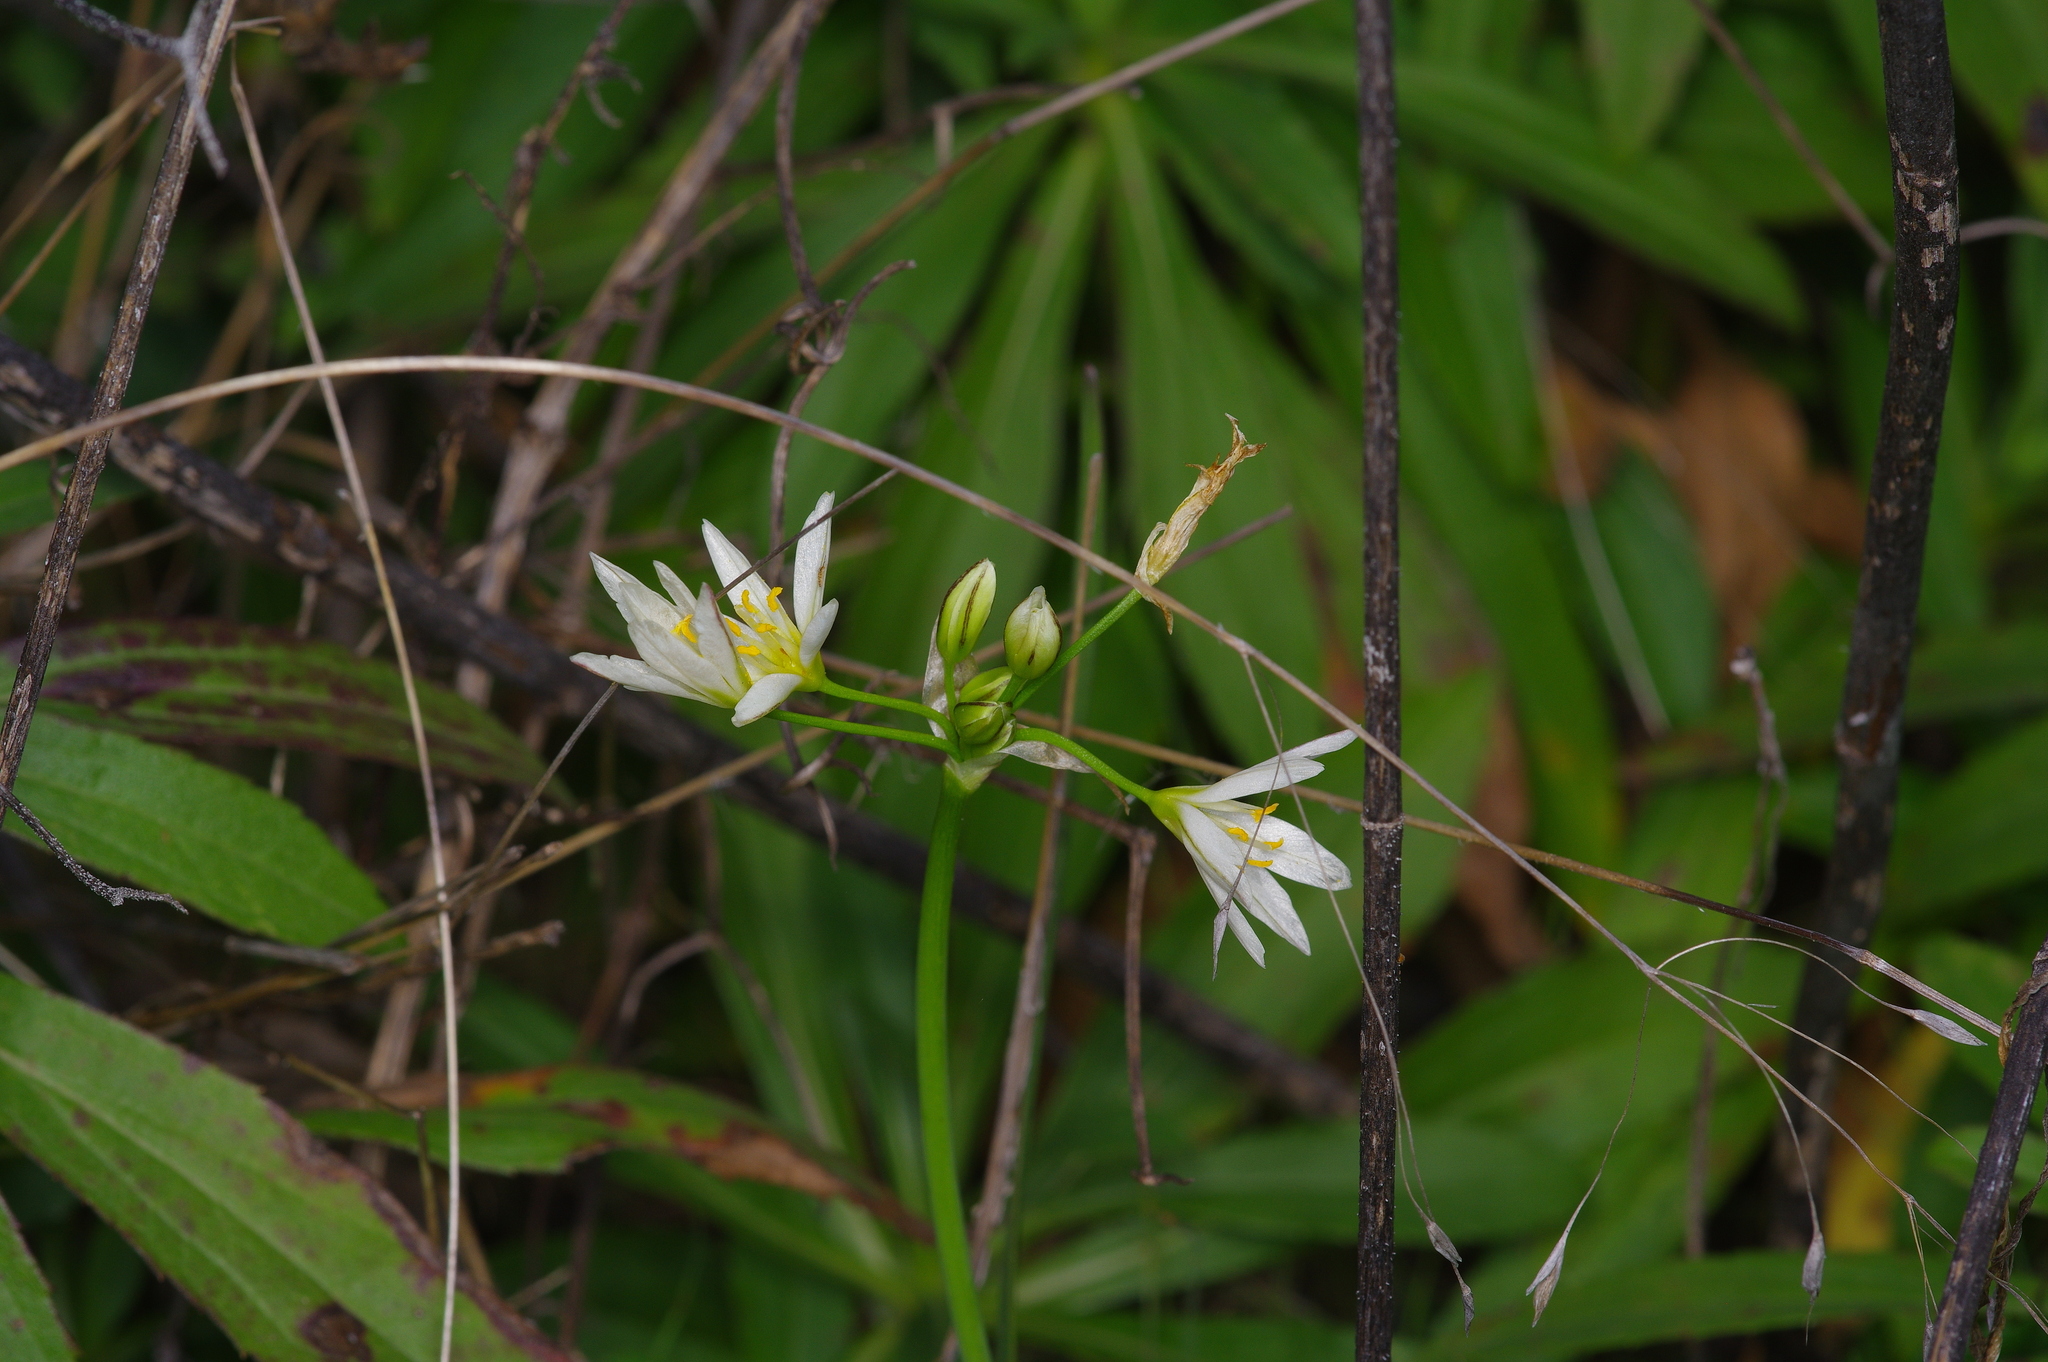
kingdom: Plantae
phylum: Tracheophyta
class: Liliopsida
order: Asparagales
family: Amaryllidaceae
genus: Nothoscordum
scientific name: Nothoscordum bivalve
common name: Crow-poison
